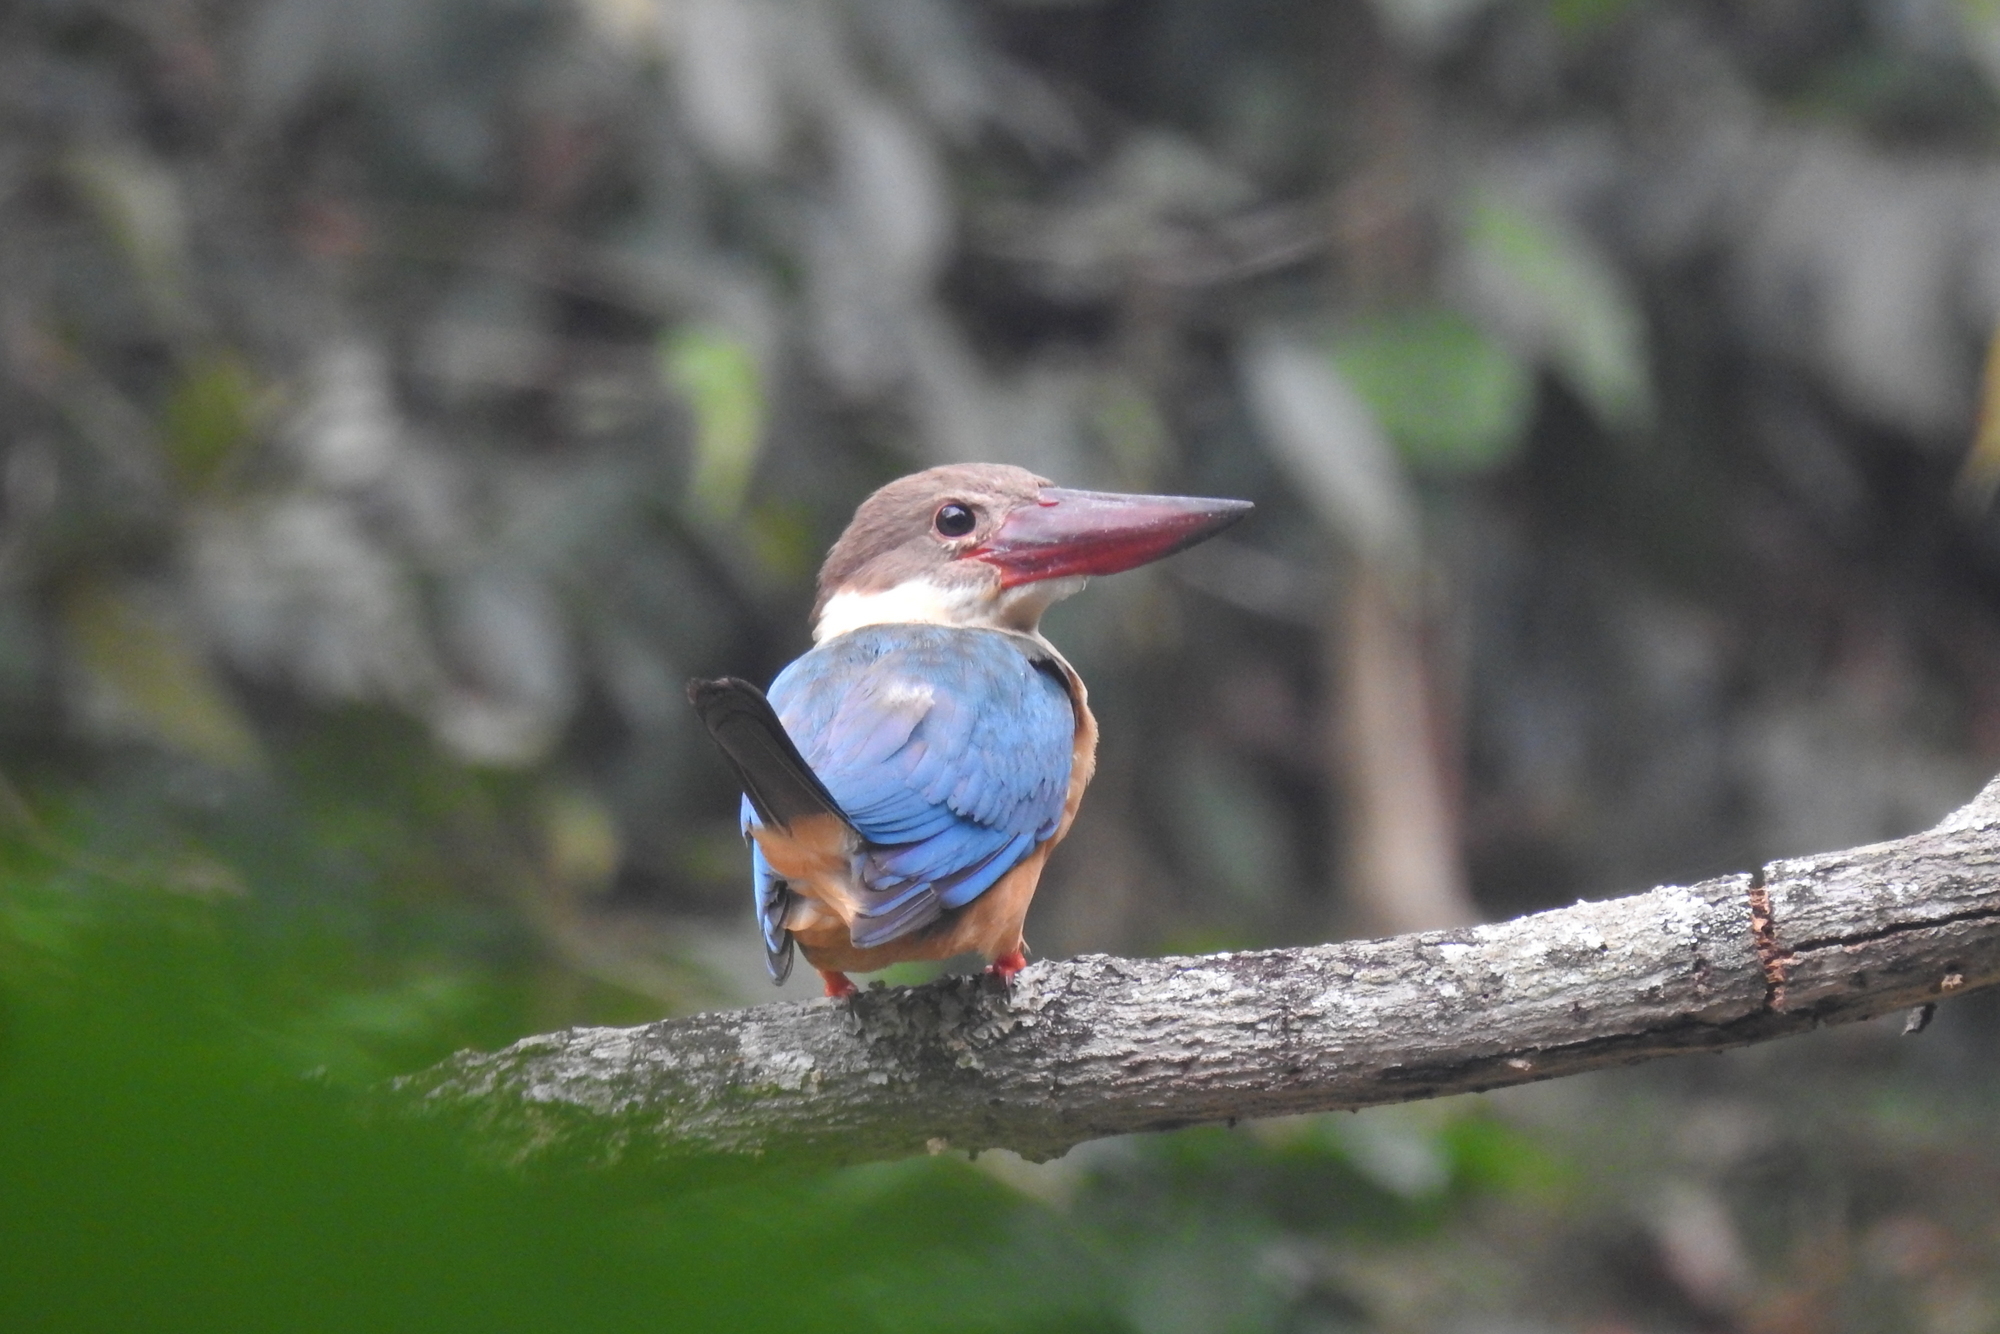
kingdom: Animalia
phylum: Chordata
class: Aves
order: Coraciiformes
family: Alcedinidae
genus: Pelargopsis
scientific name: Pelargopsis capensis
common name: Stork-billed kingfisher
